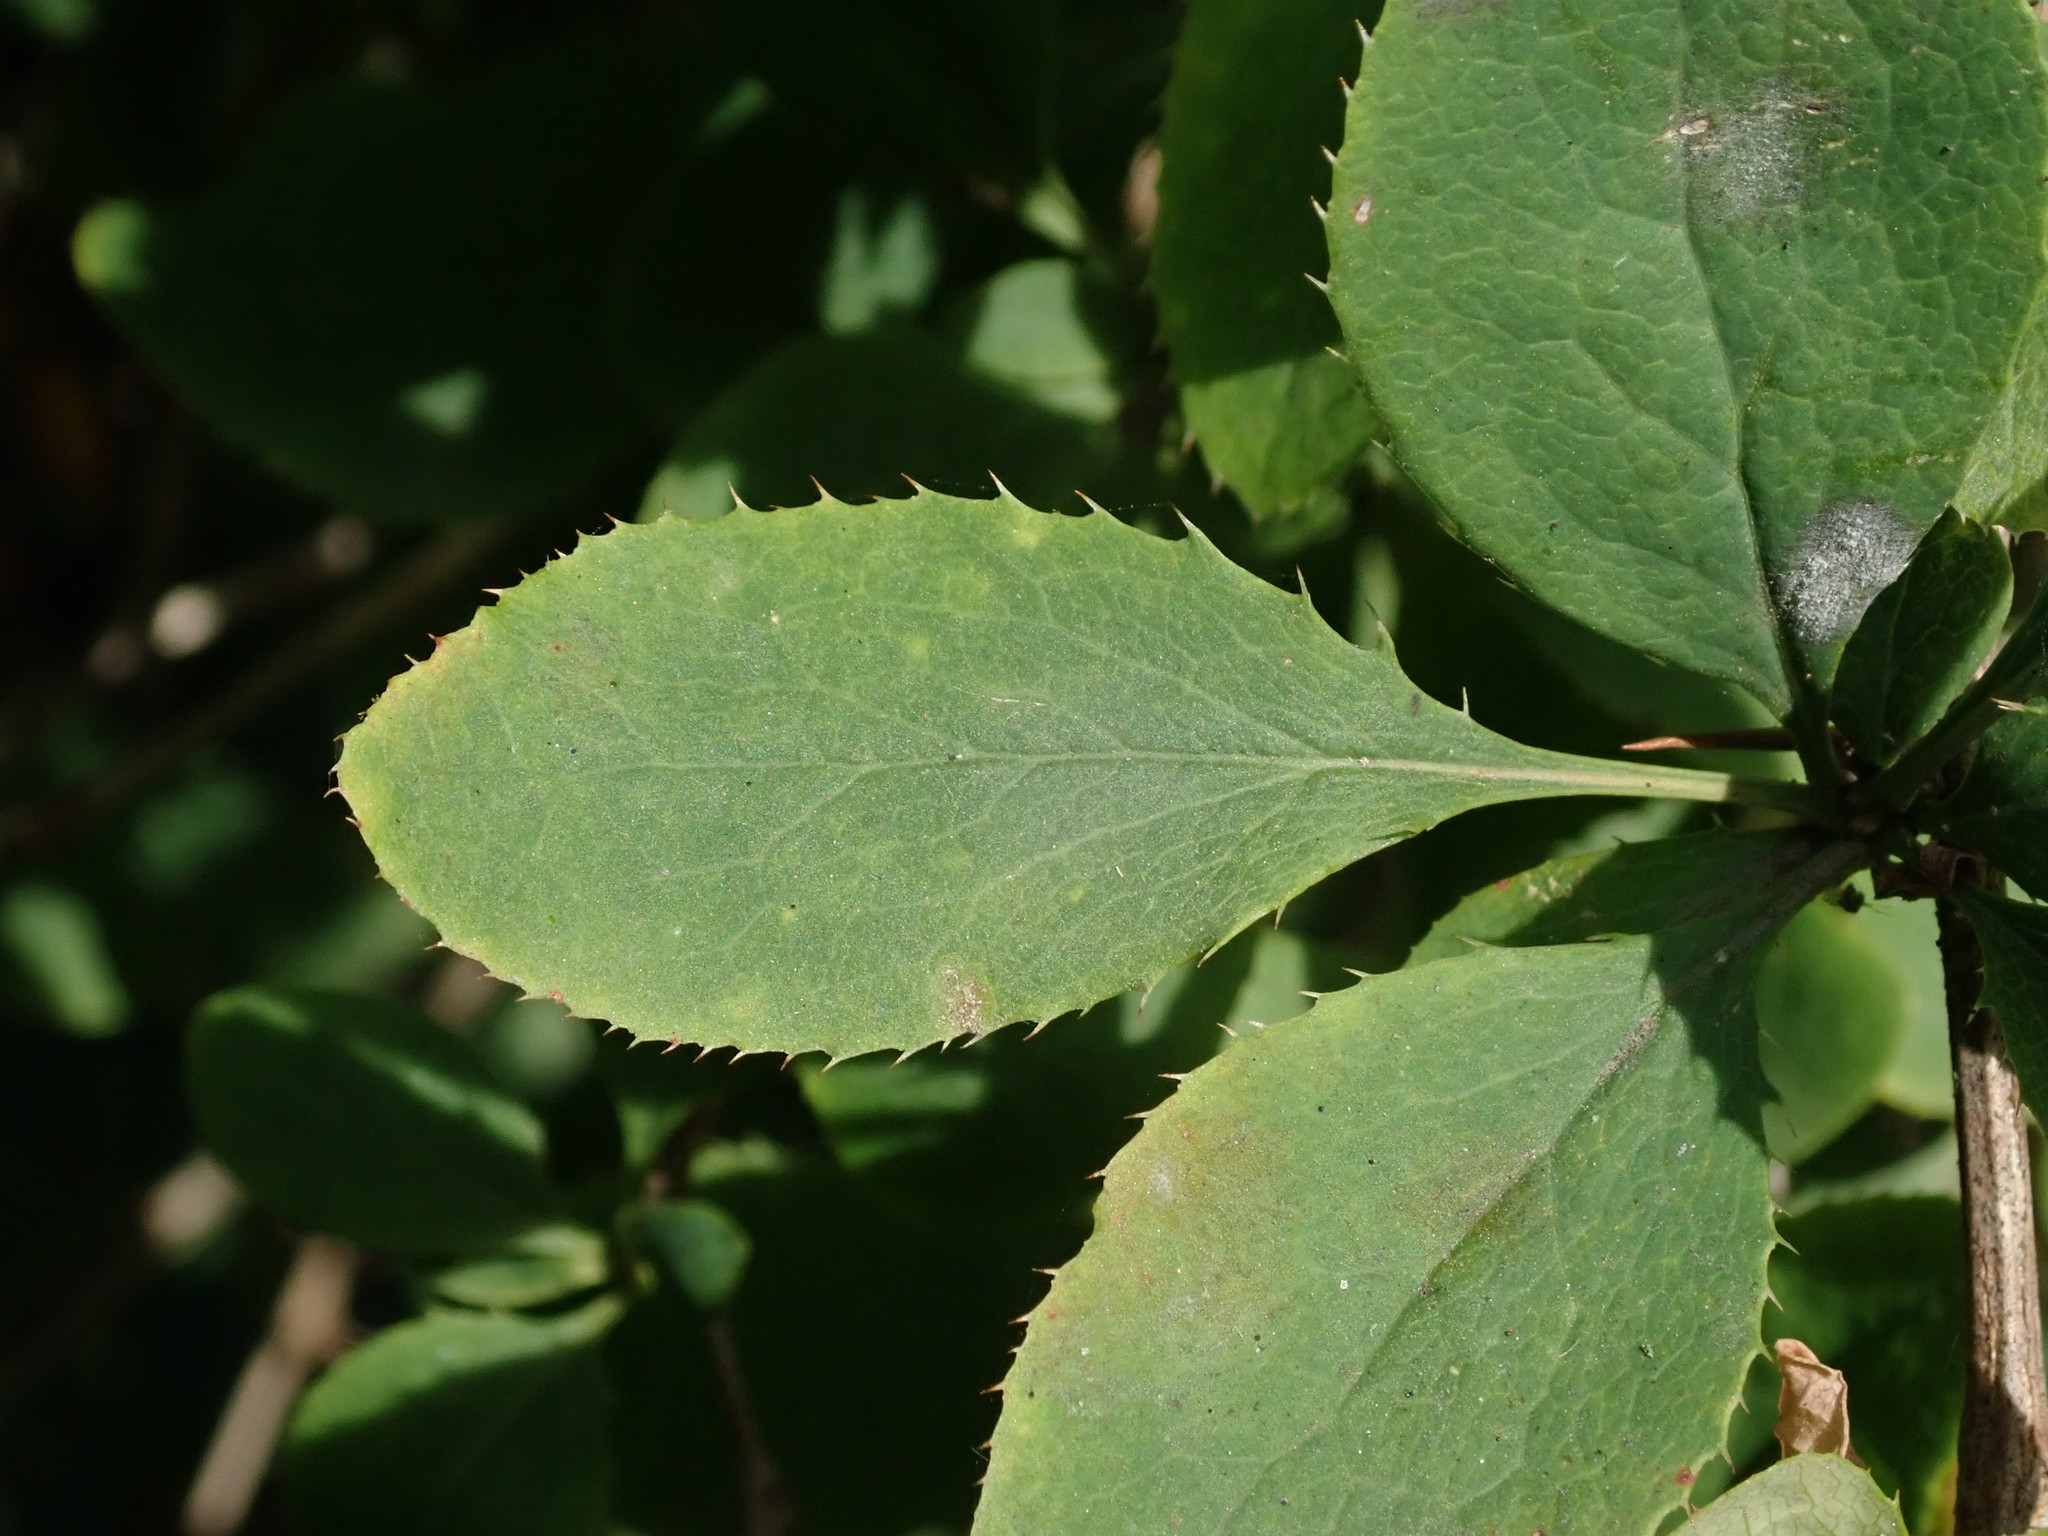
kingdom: Plantae
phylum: Tracheophyta
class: Magnoliopsida
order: Ranunculales
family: Berberidaceae
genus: Berberis
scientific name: Berberis vulgaris
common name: Barberry
